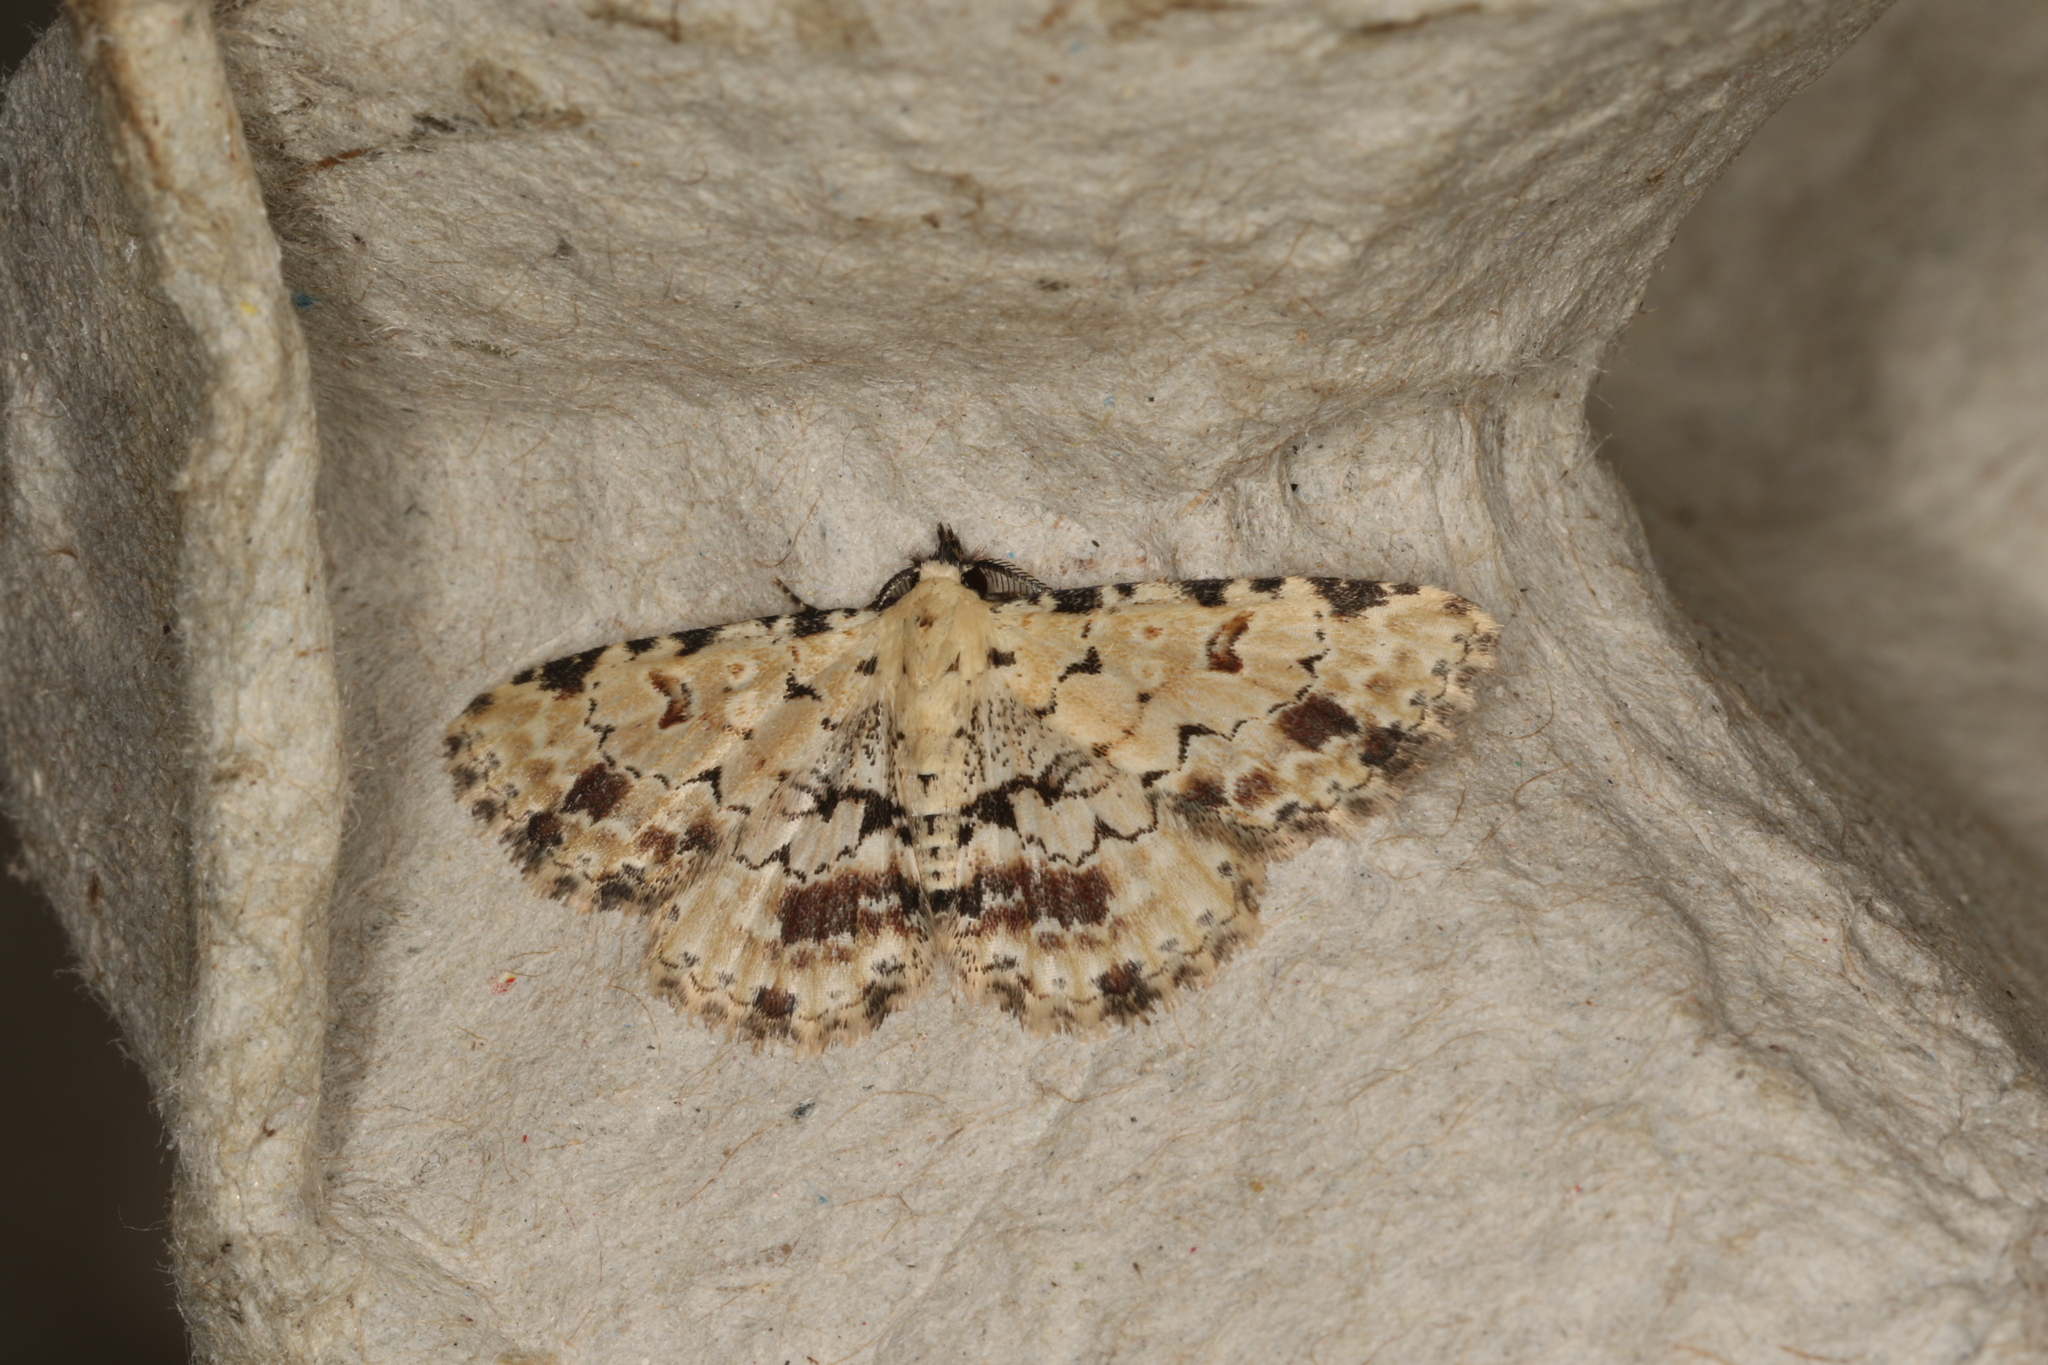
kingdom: Animalia
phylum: Arthropoda
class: Insecta
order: Lepidoptera
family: Erebidae
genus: Sandava
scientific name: Sandava scitisignata
